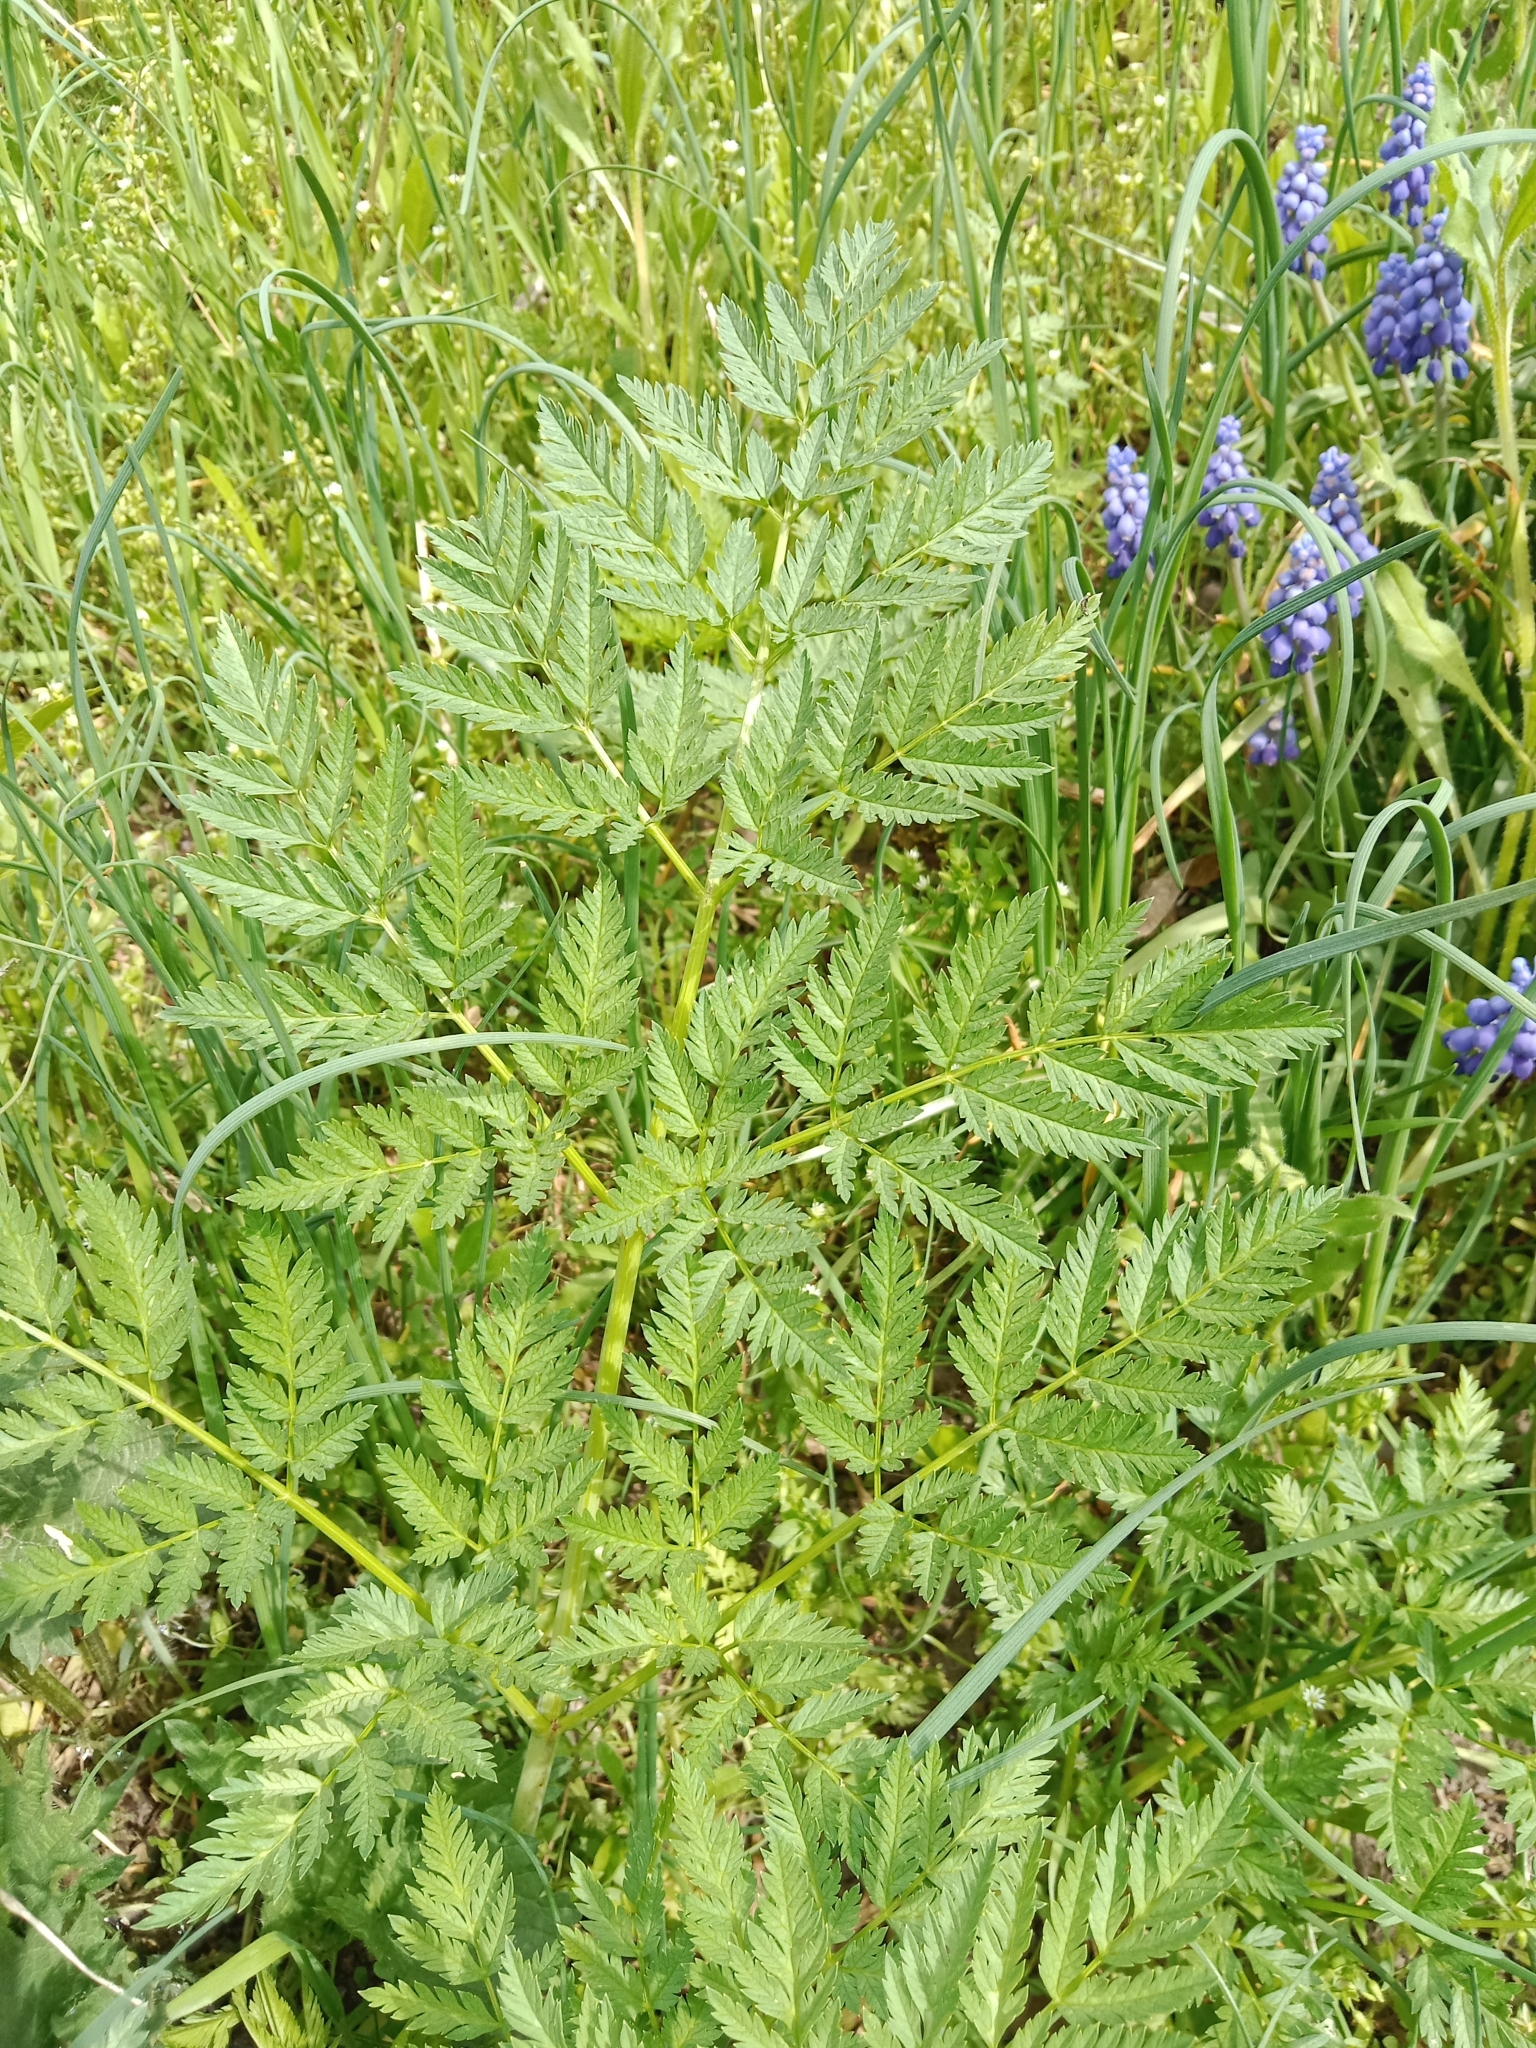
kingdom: Plantae
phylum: Tracheophyta
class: Magnoliopsida
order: Apiales
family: Apiaceae
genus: Conium
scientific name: Conium maculatum
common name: Hemlock
